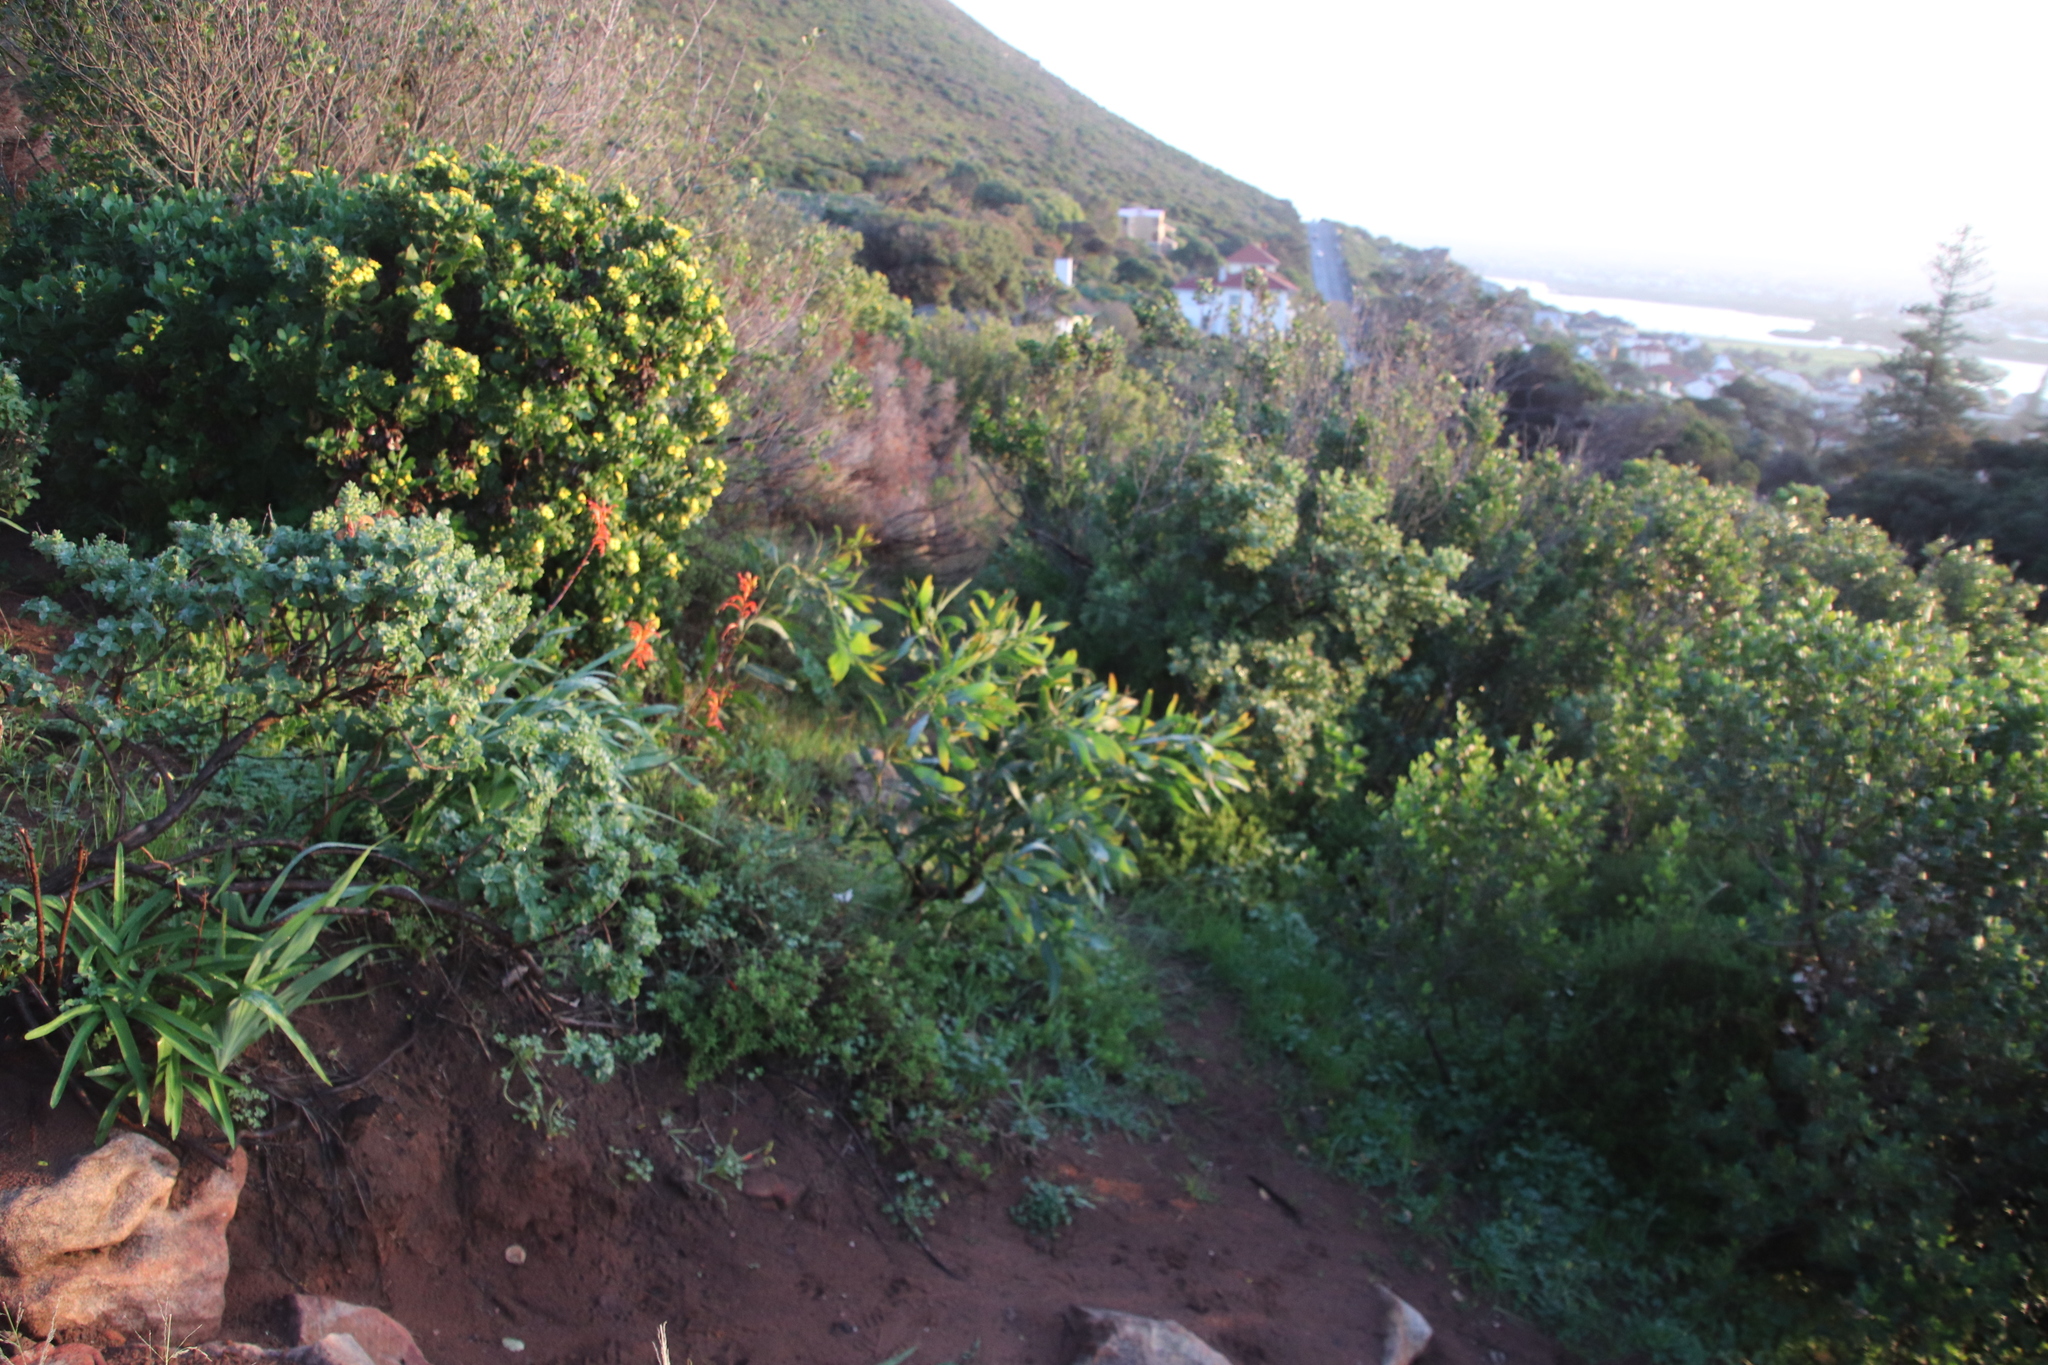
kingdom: Plantae
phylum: Tracheophyta
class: Magnoliopsida
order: Fabales
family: Fabaceae
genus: Acacia
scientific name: Acacia saligna
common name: Orange wattle
